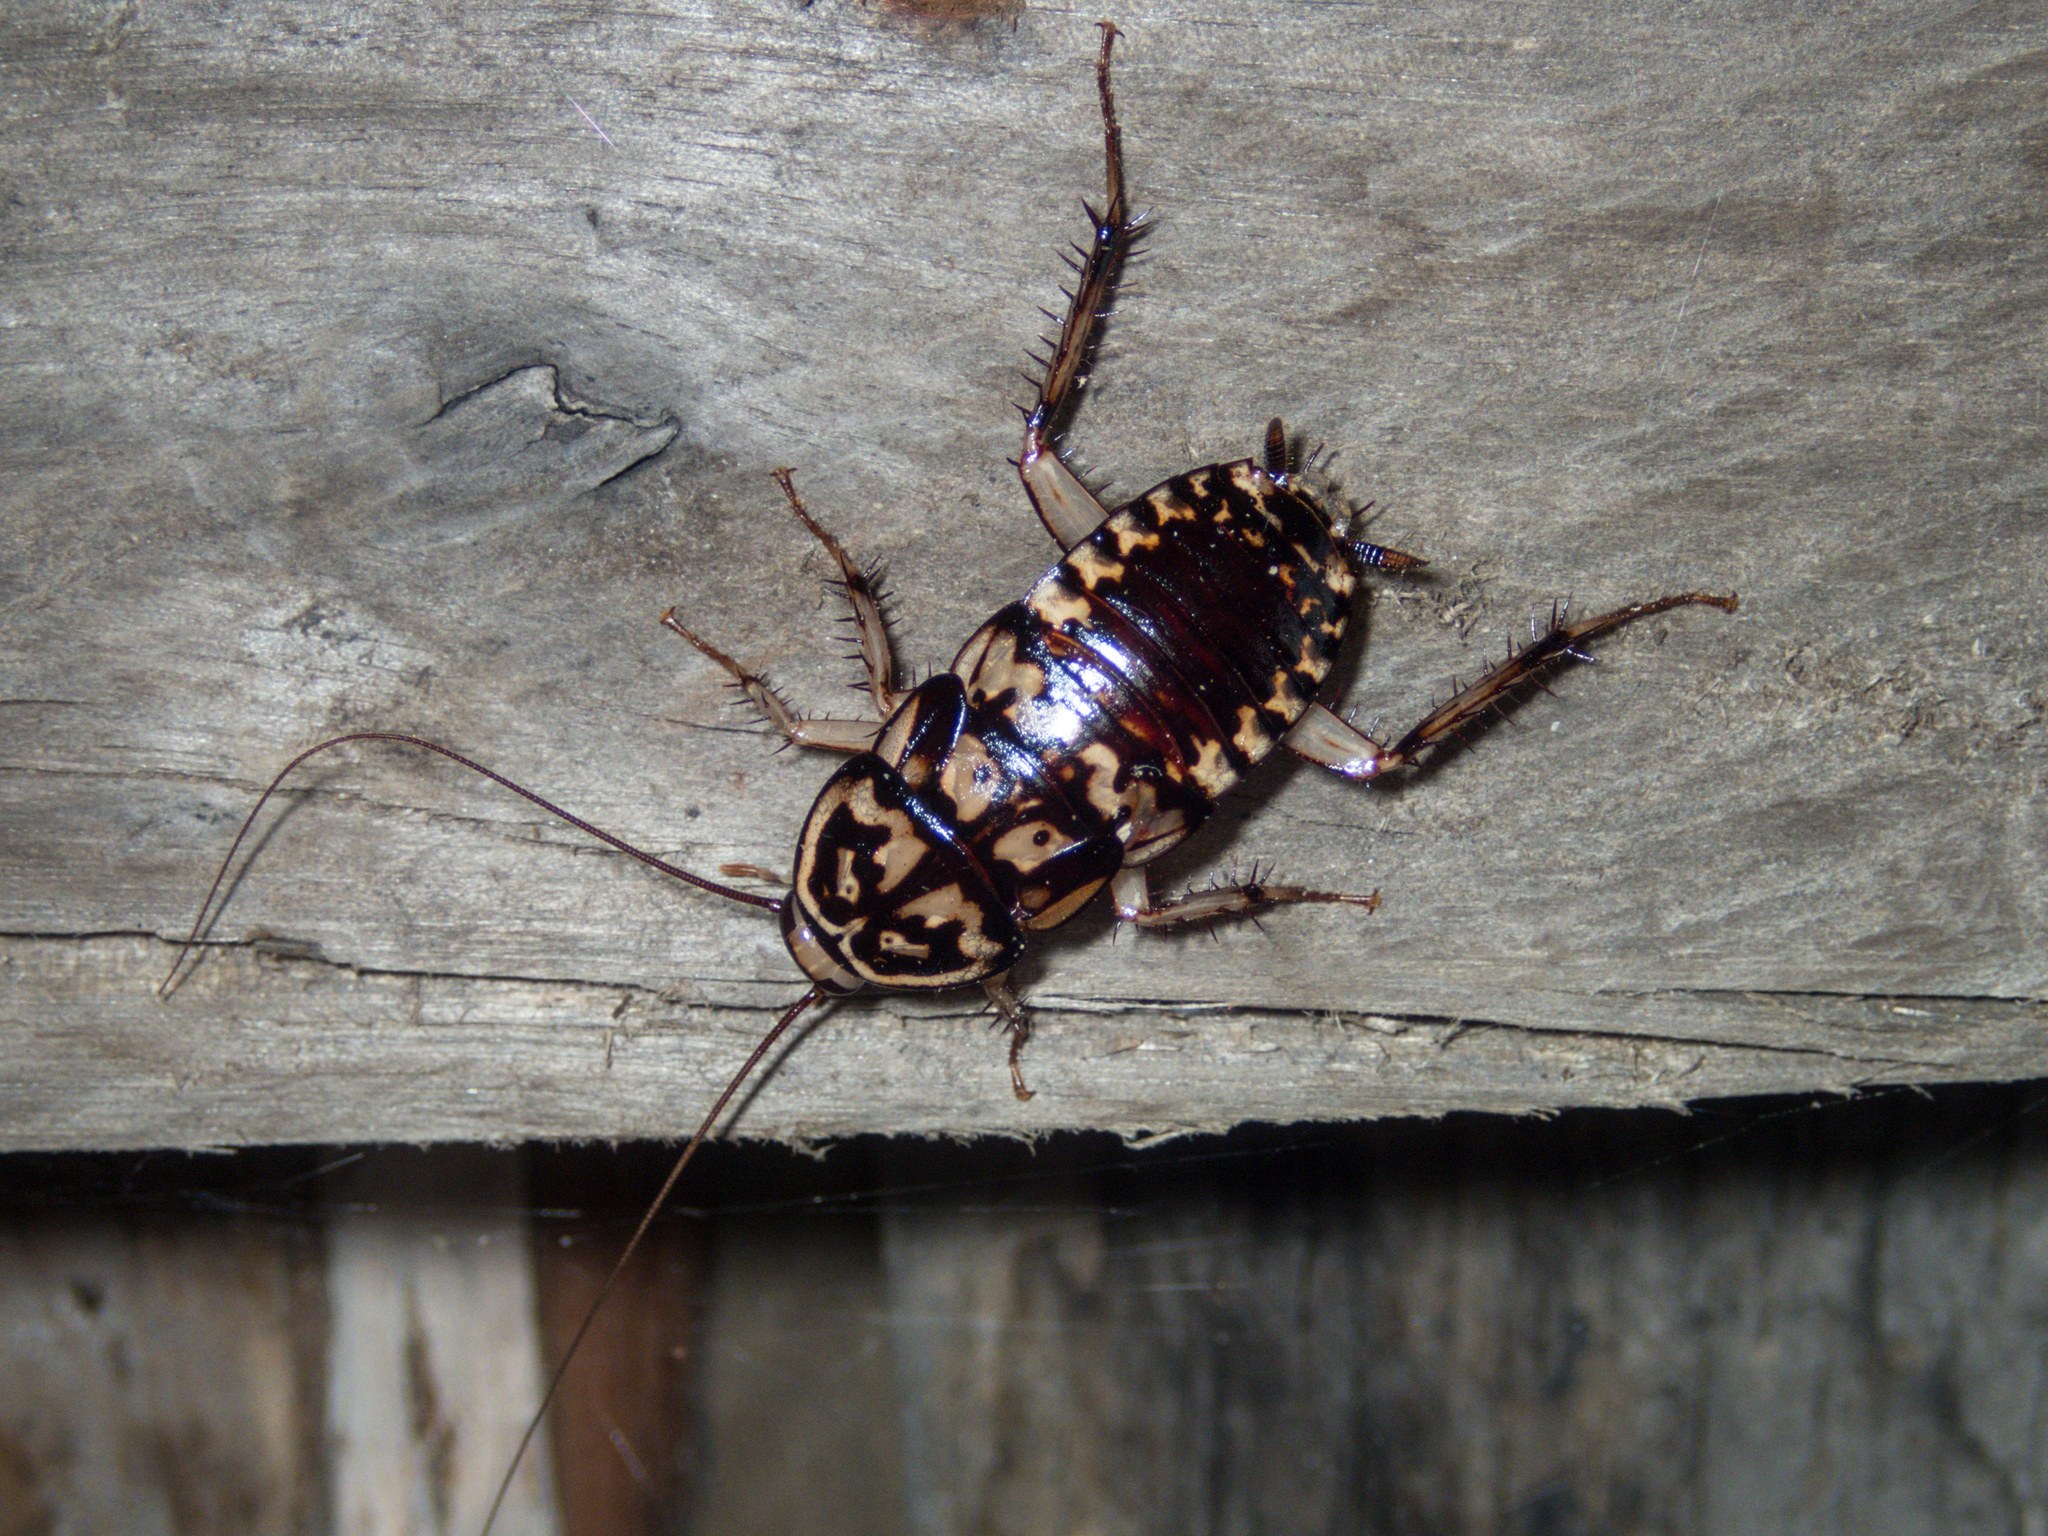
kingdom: Animalia
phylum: Arthropoda
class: Insecta
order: Blattodea
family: Blattidae
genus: Neostylopyga
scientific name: Neostylopyga rhombifolia
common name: Harlequin cockroach
